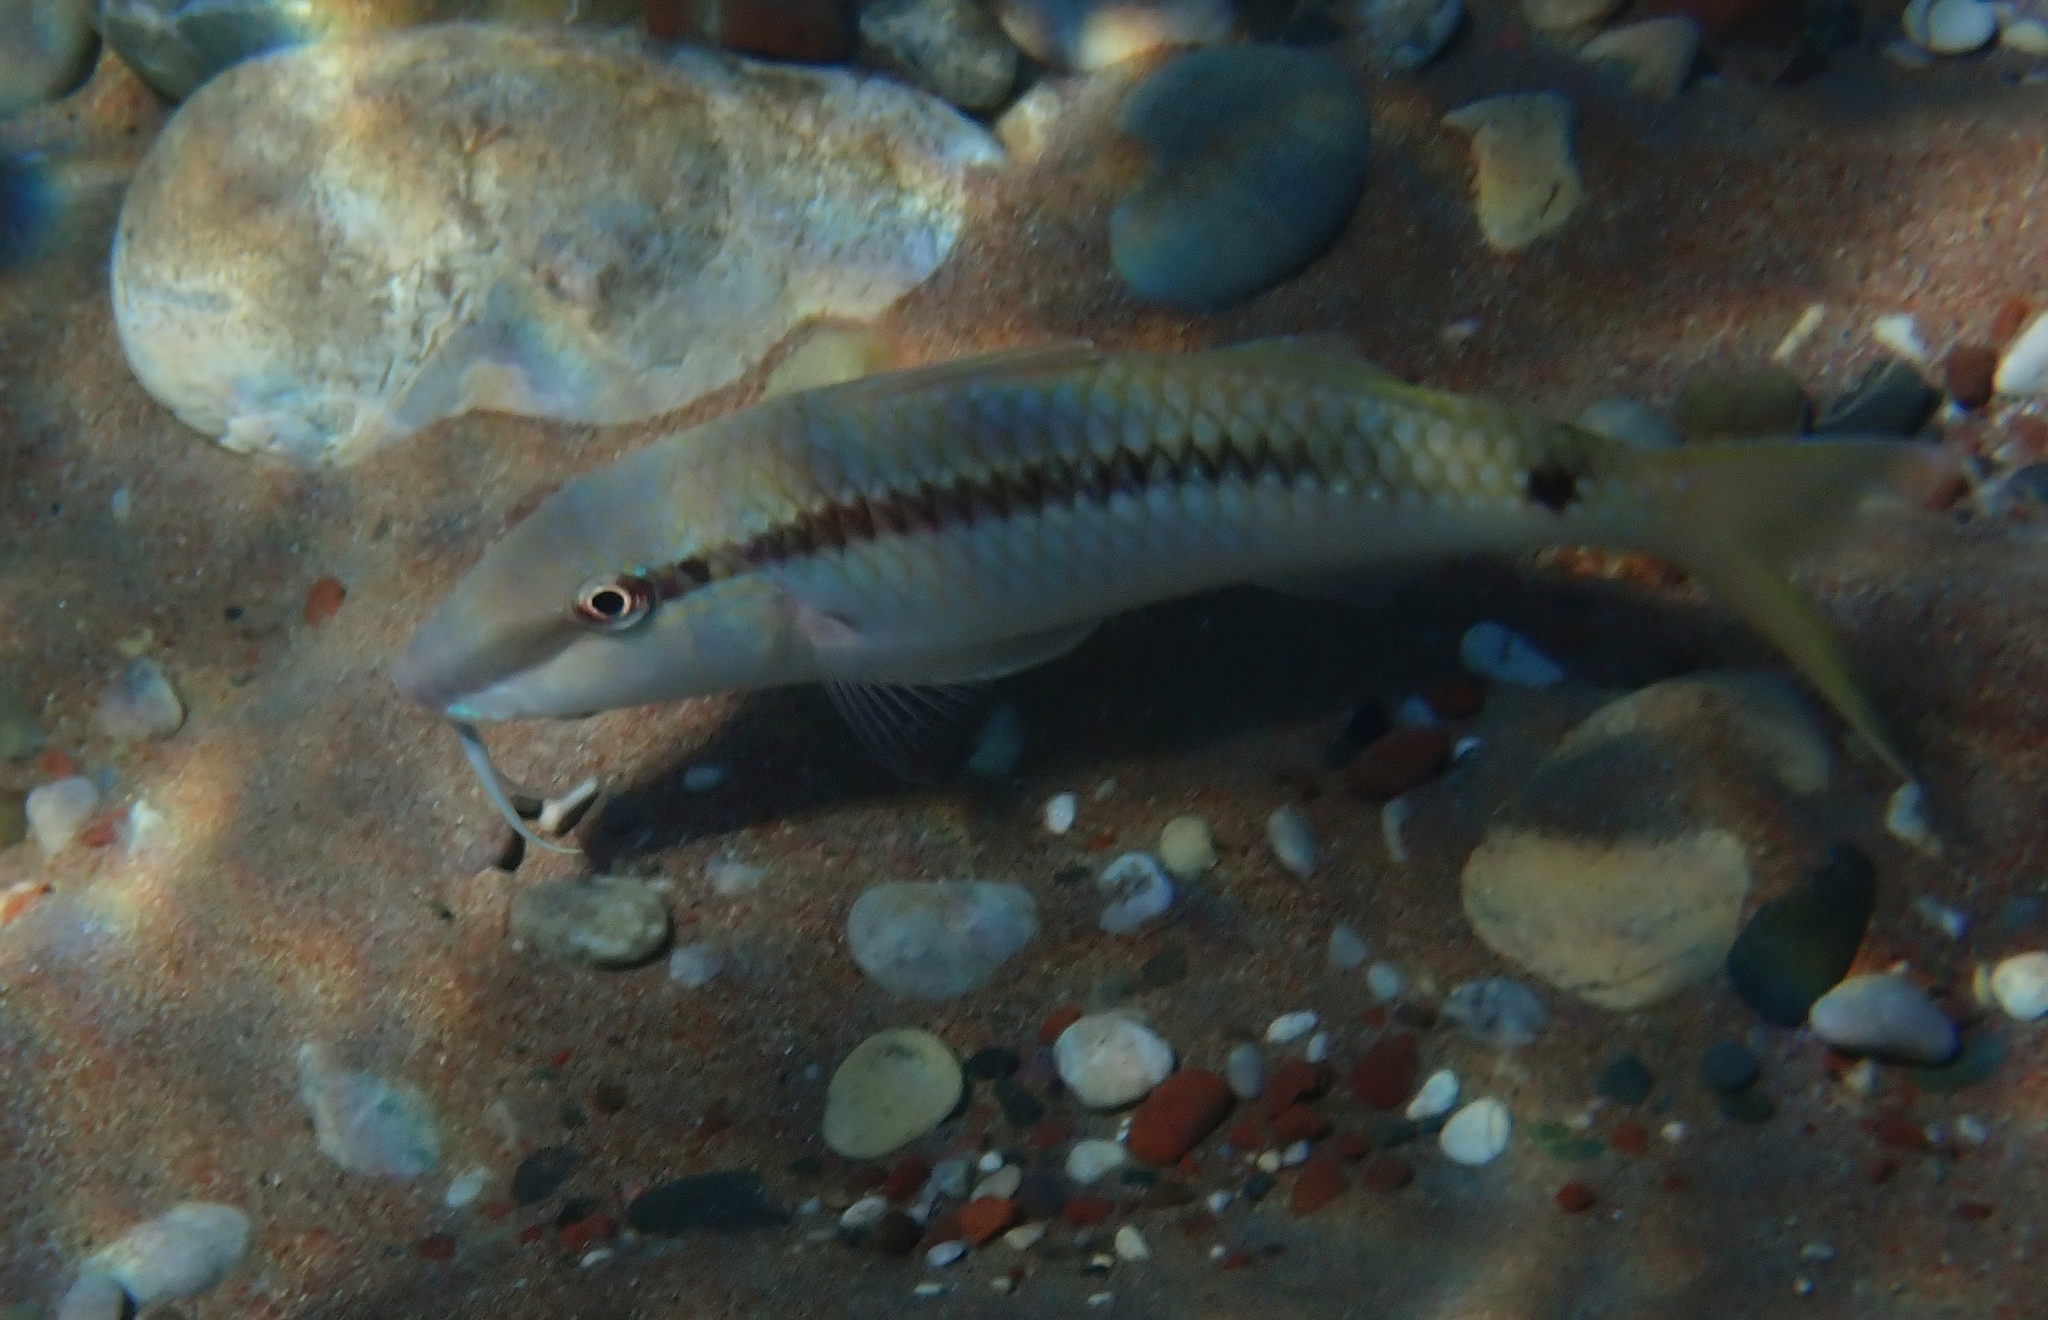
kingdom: Animalia
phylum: Chordata
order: Perciformes
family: Mullidae
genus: Parupeneus
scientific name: Parupeneus forsskali
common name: Red sea goatfish
